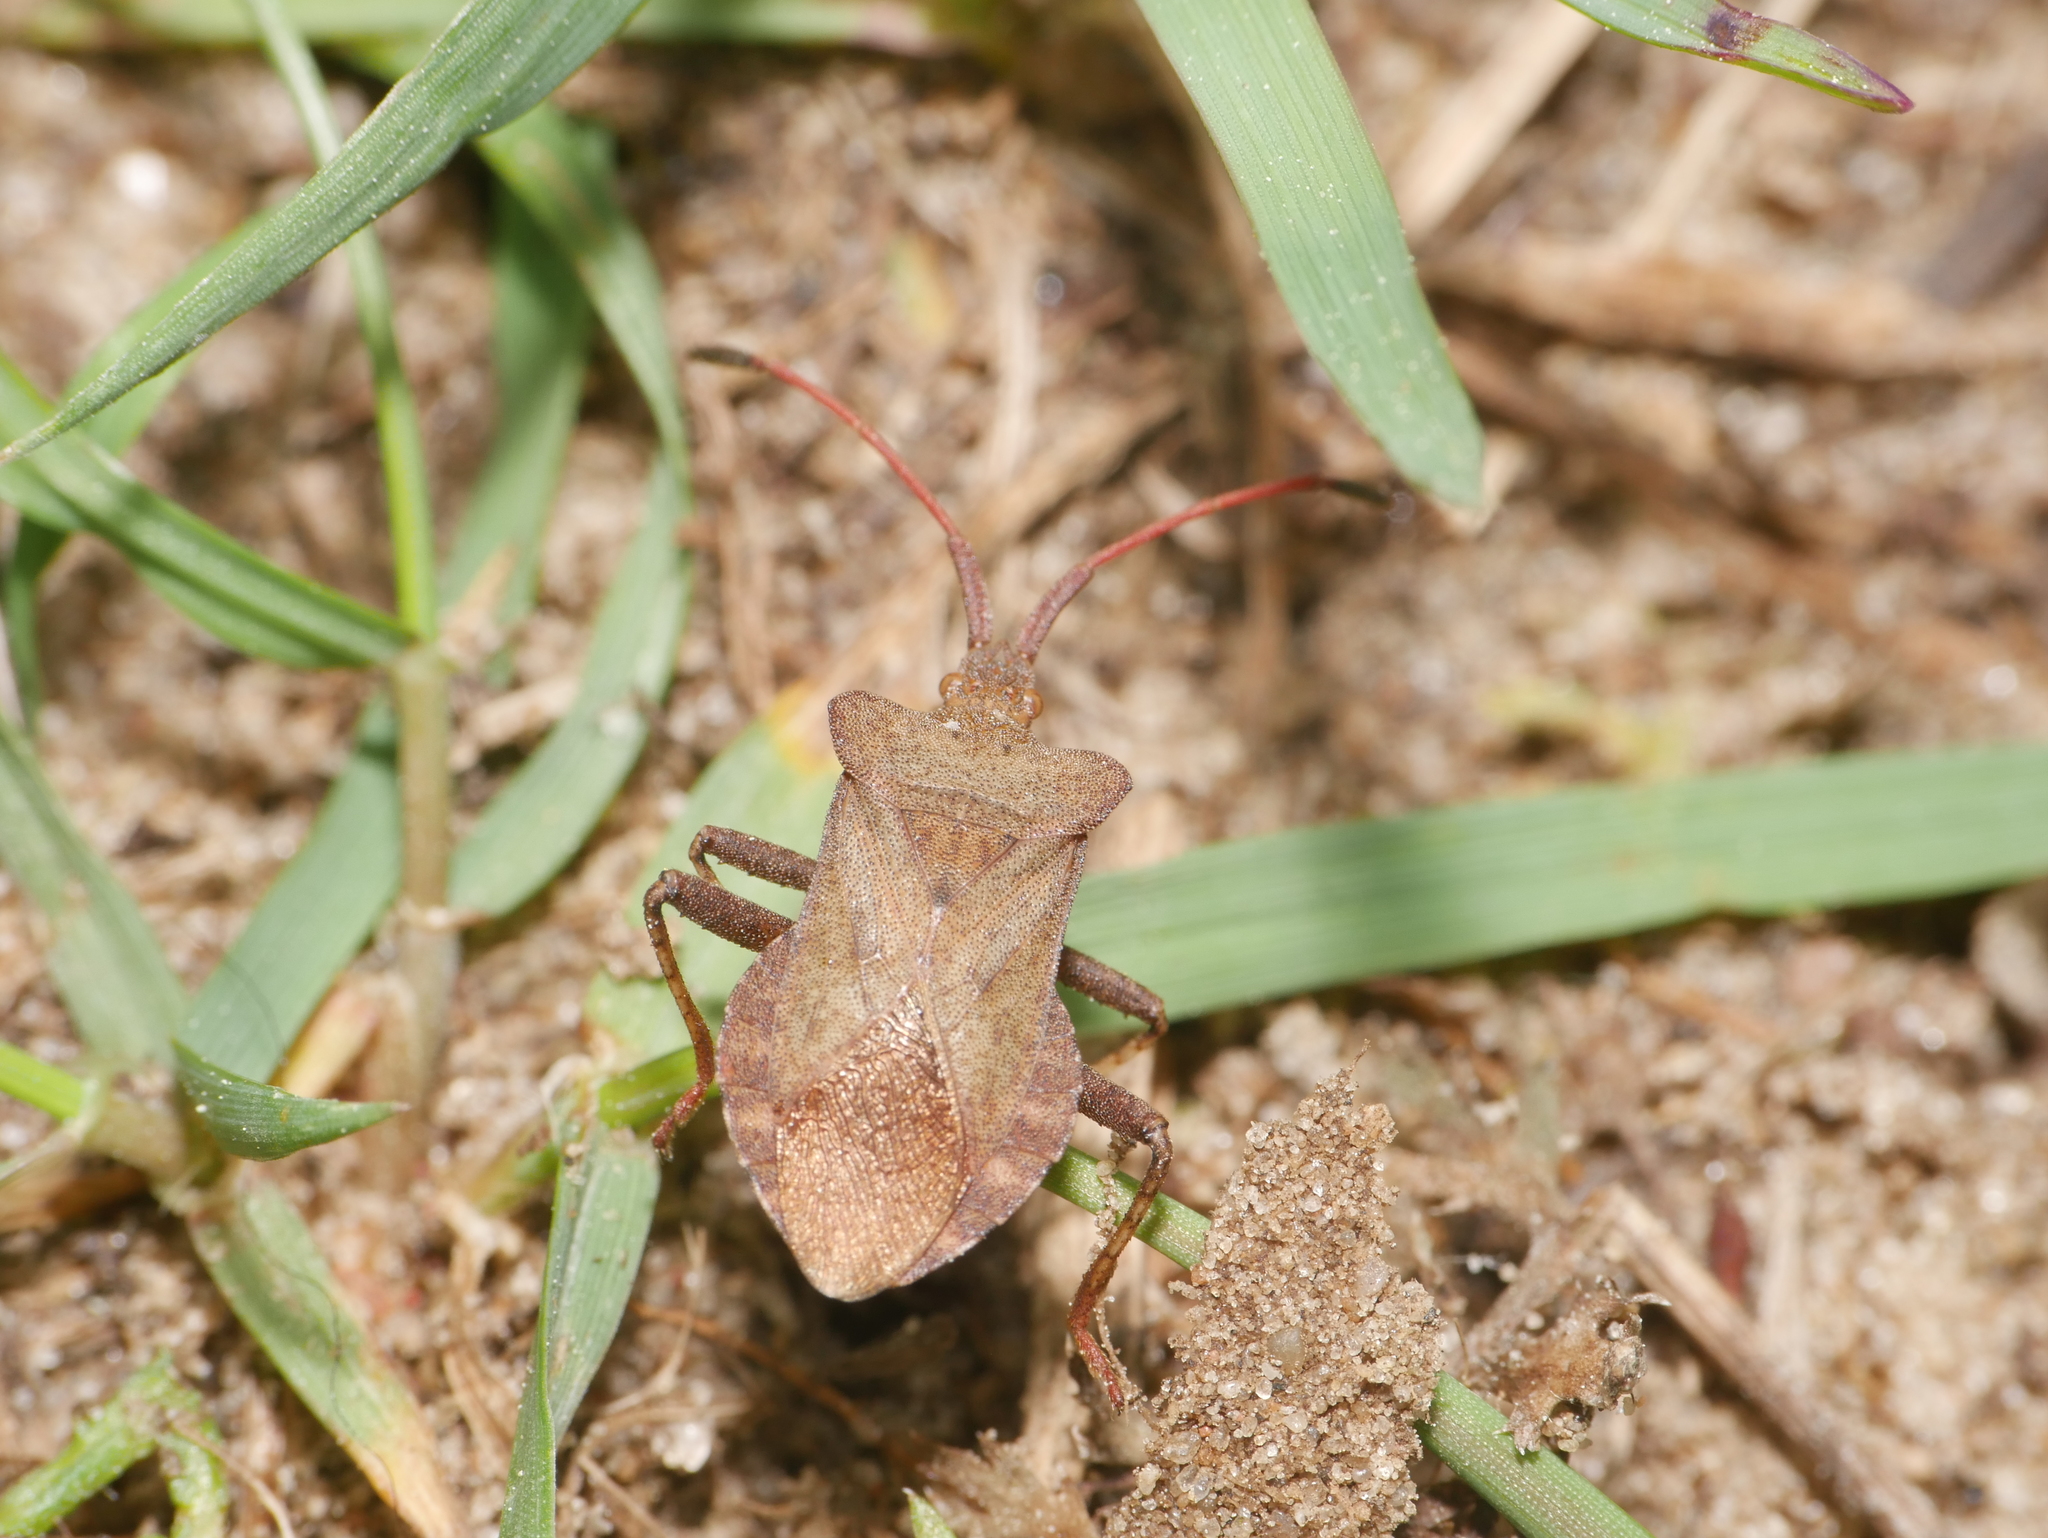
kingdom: Animalia
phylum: Arthropoda
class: Insecta
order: Hemiptera
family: Coreidae
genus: Coreus
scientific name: Coreus marginatus
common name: Dock bug
